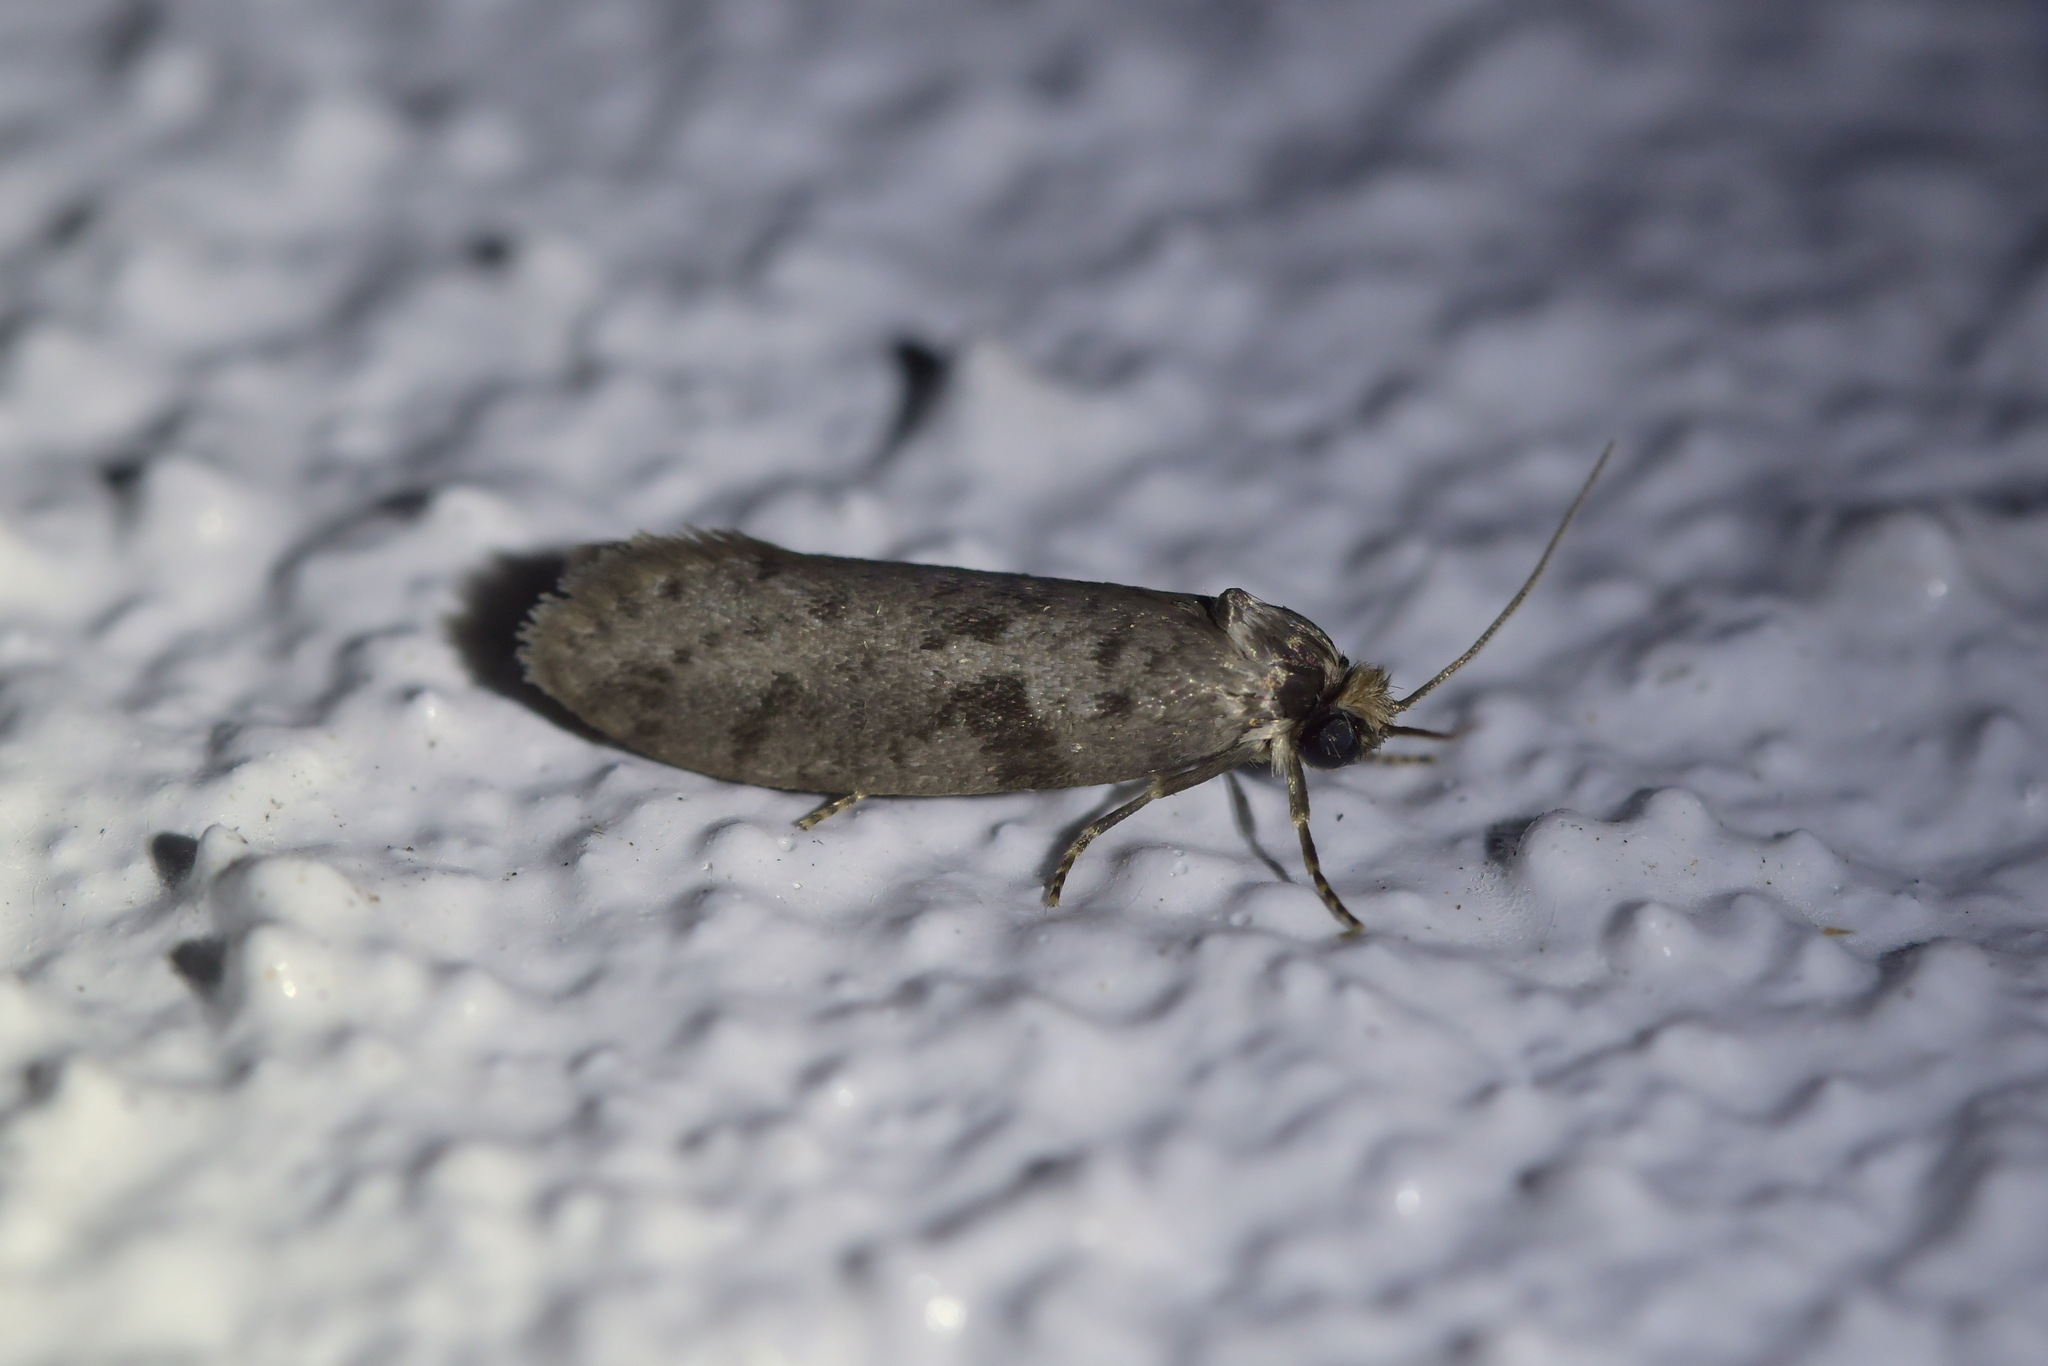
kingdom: Animalia
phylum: Arthropoda
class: Insecta
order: Lepidoptera
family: Psychidae
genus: Lepidoscia
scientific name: Lepidoscia protorna
